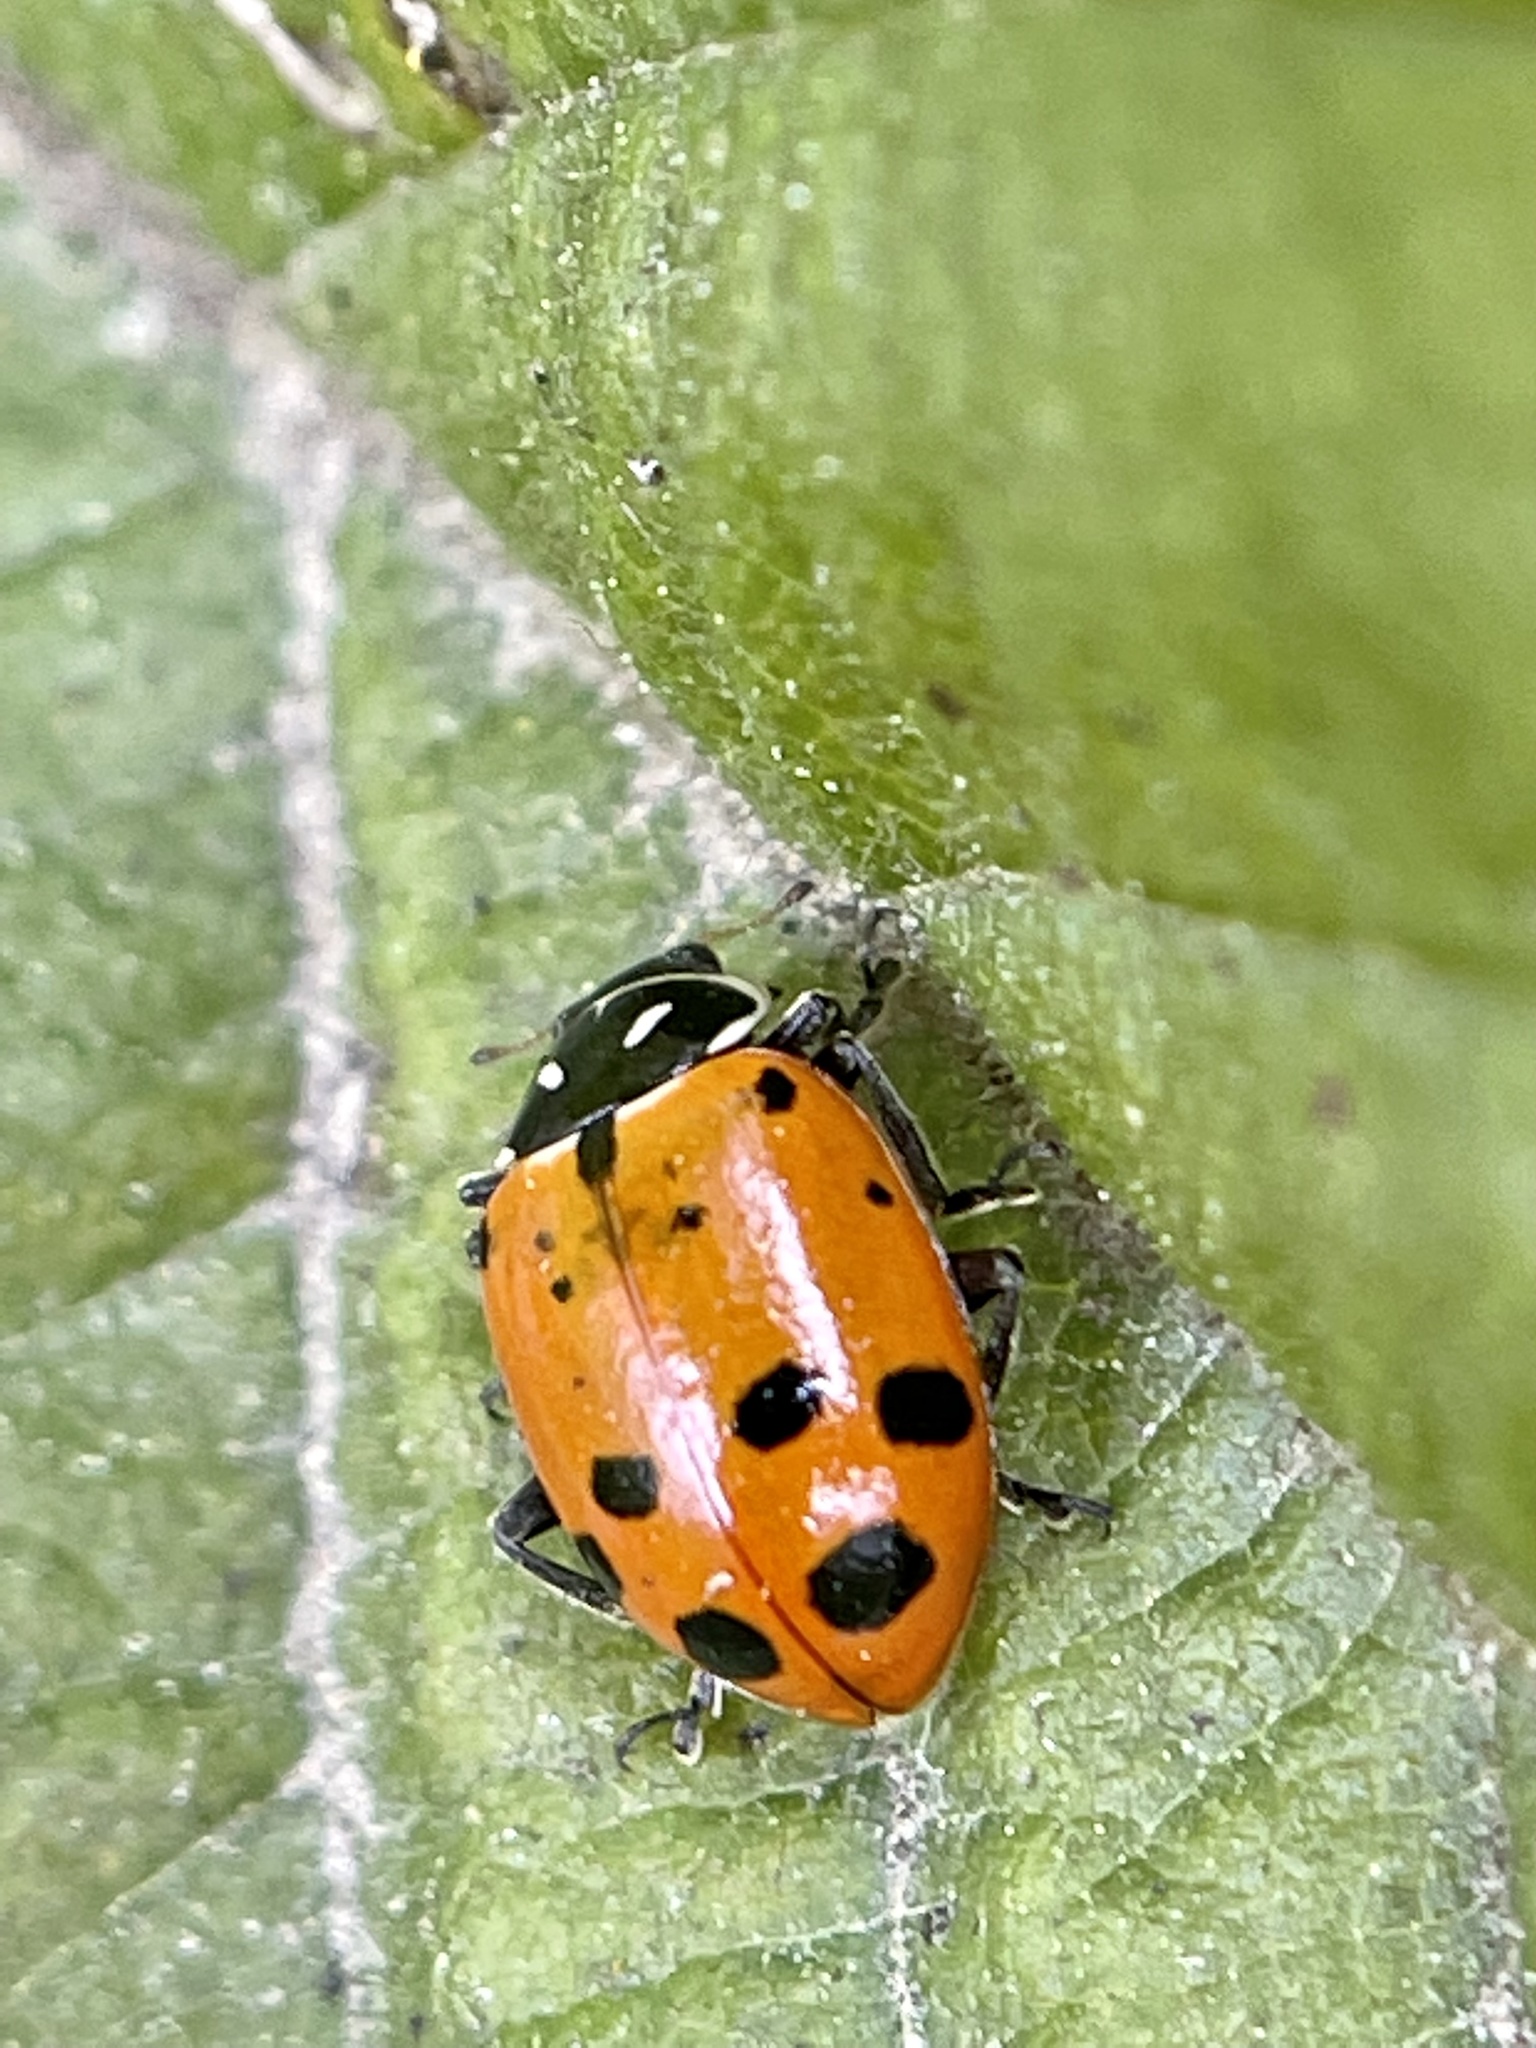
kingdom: Animalia
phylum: Arthropoda
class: Insecta
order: Coleoptera
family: Coccinellidae
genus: Hippodamia
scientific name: Hippodamia convergens
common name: Convergent lady beetle
